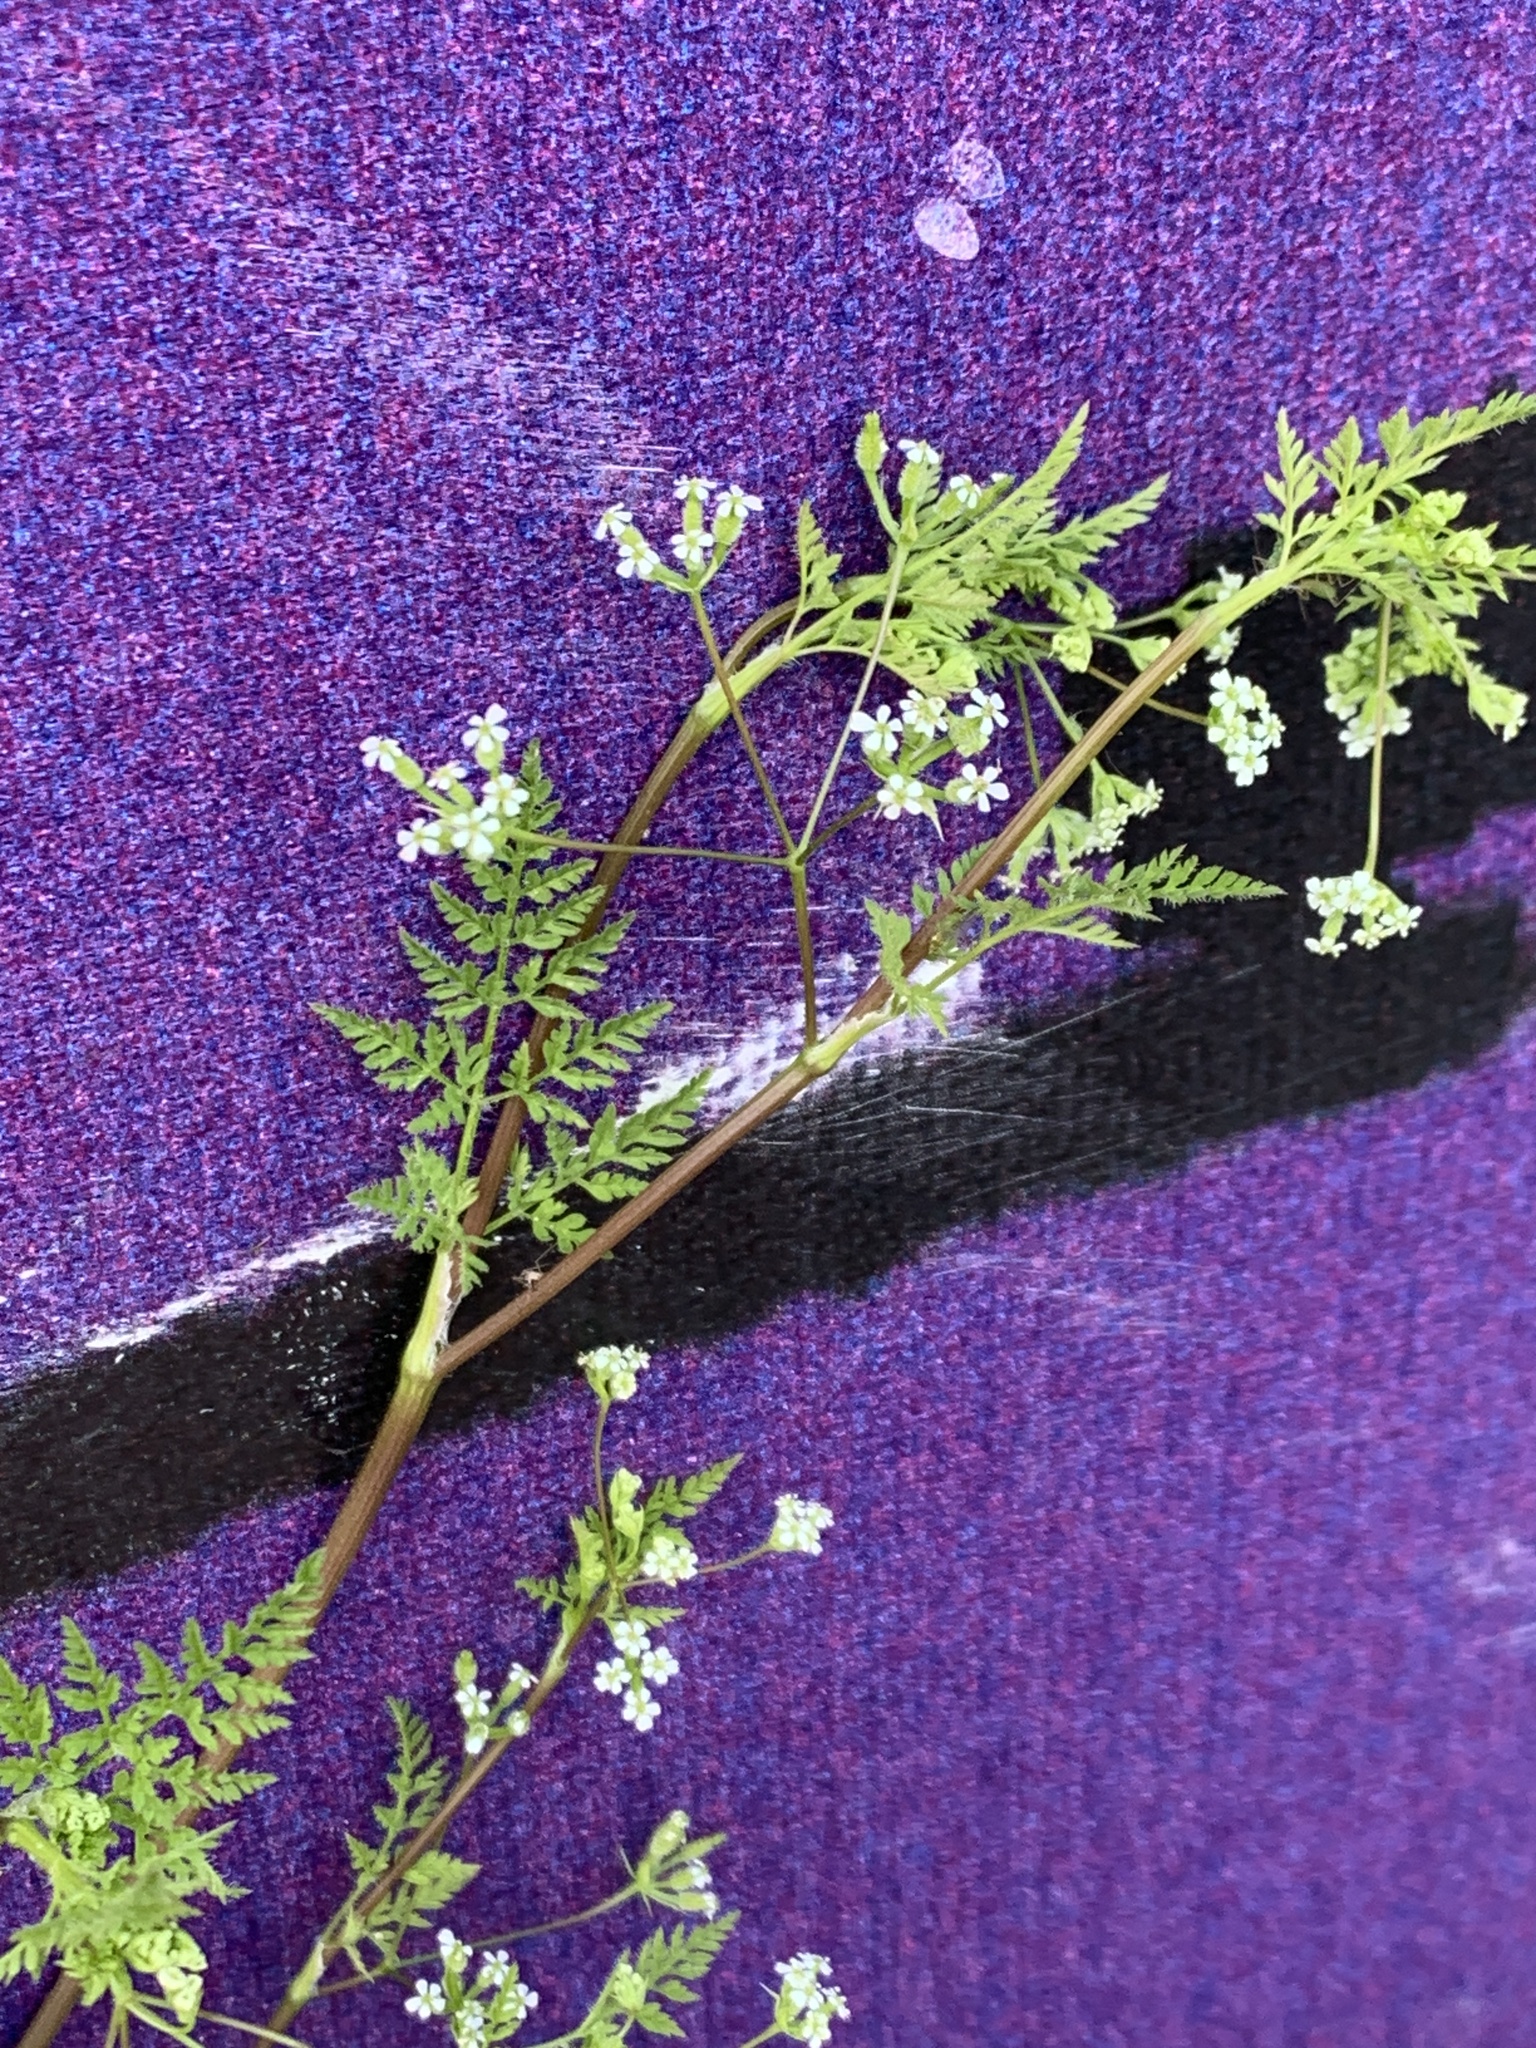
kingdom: Plantae
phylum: Tracheophyta
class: Magnoliopsida
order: Apiales
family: Apiaceae
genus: Anthriscus
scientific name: Anthriscus caucalis
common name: Bur chervil
